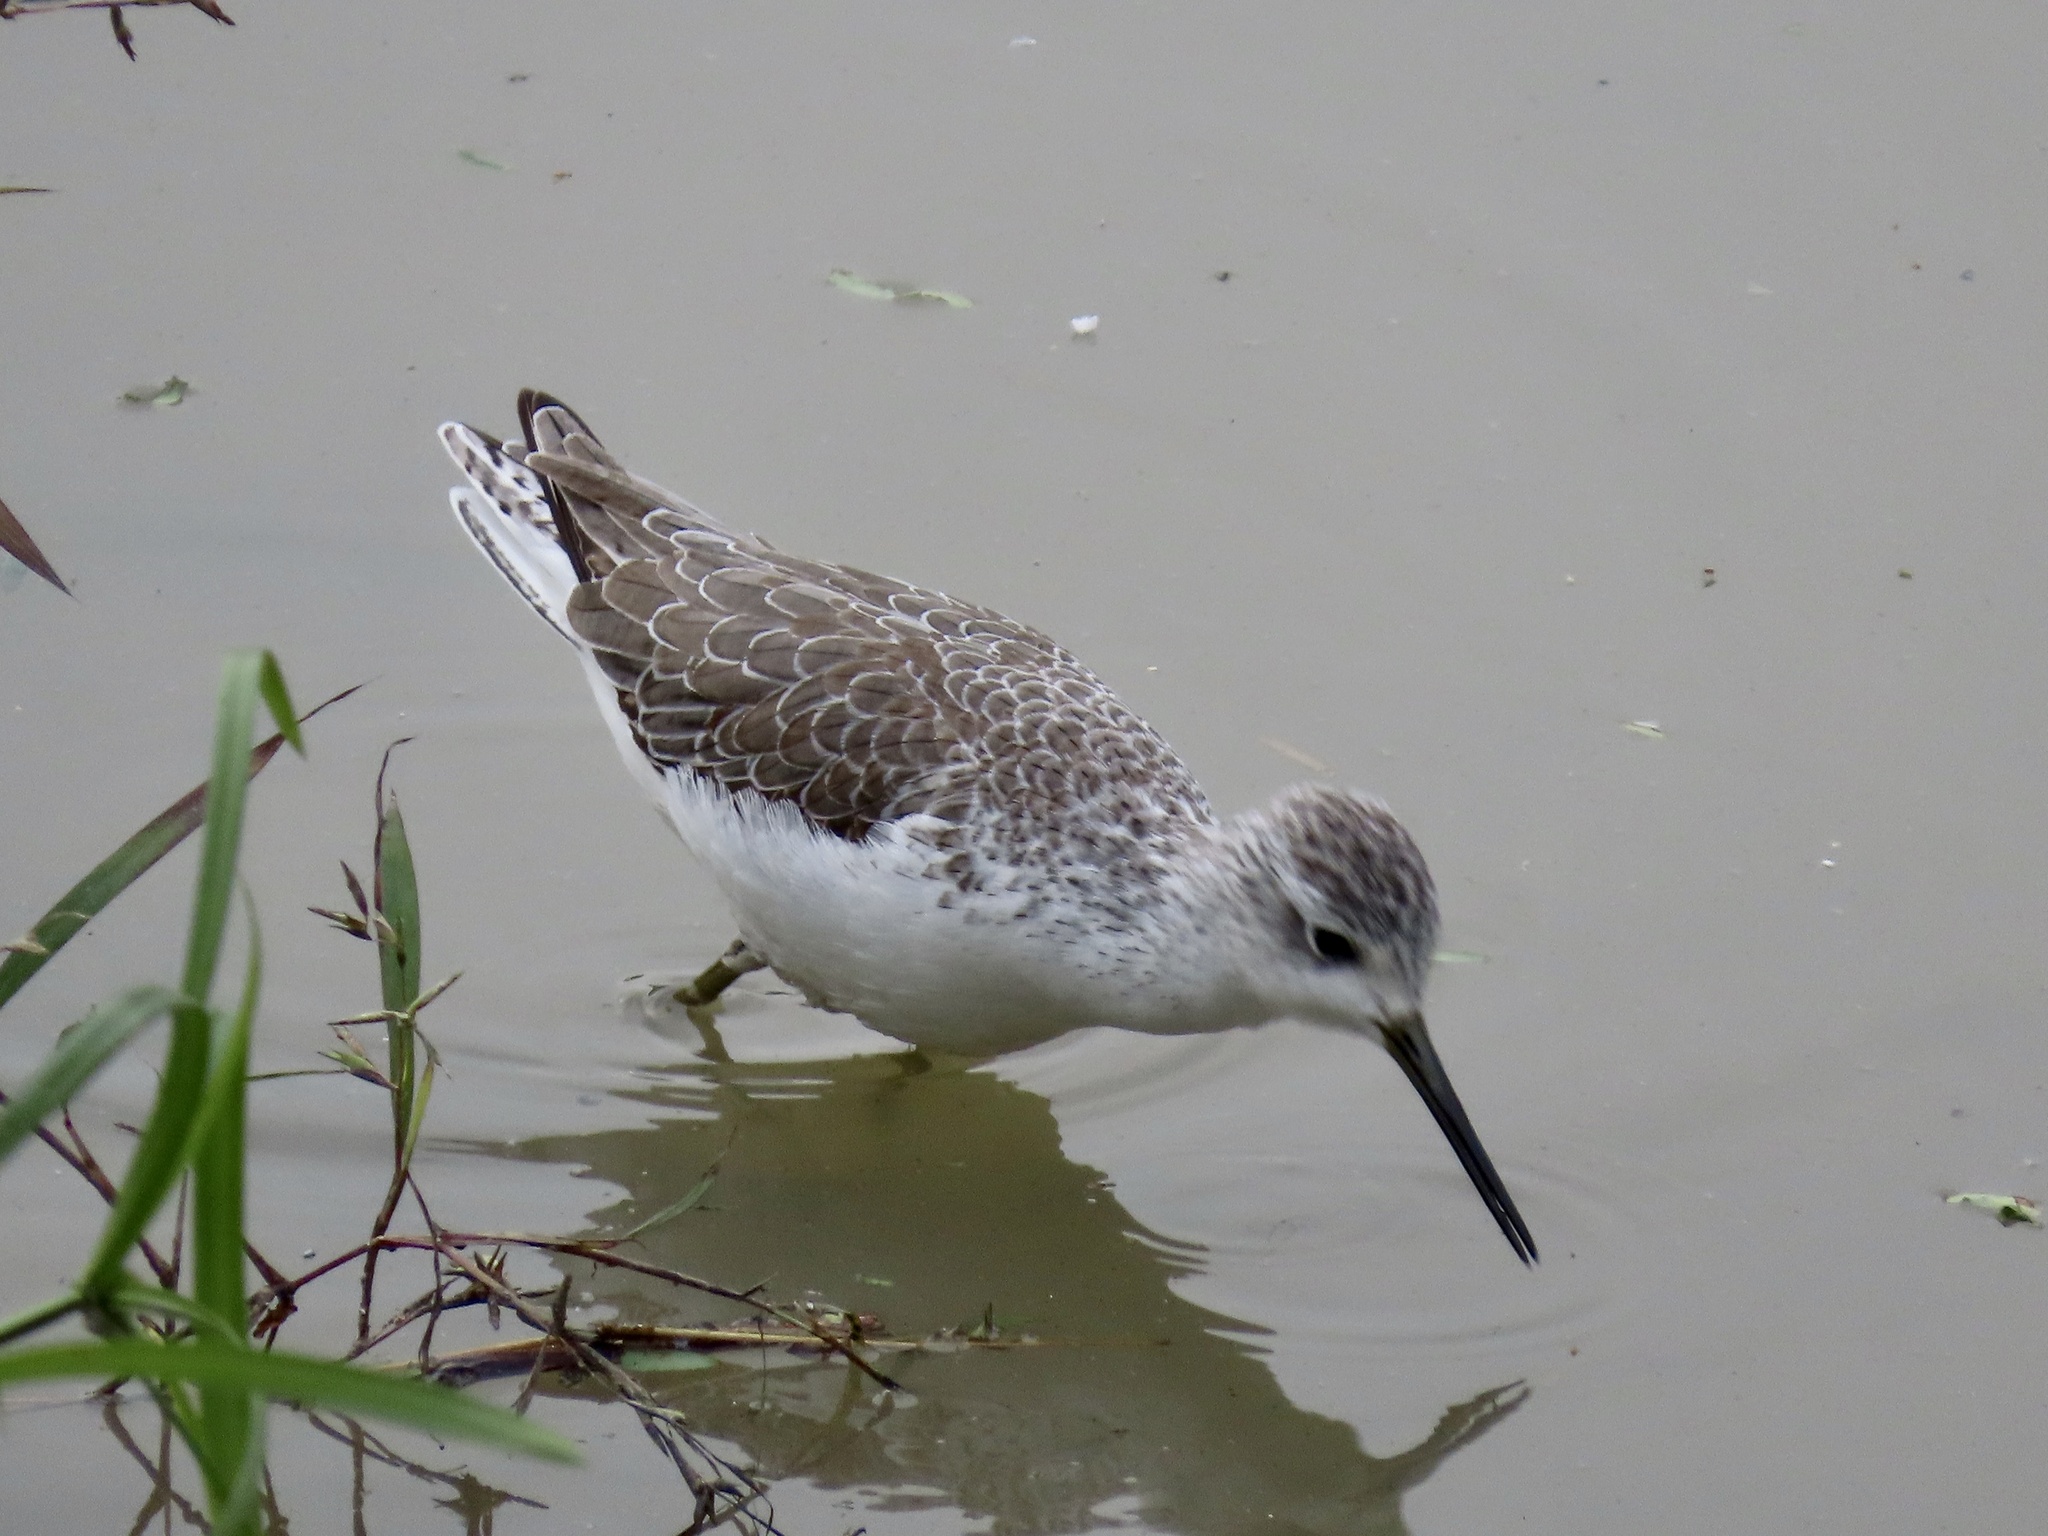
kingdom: Animalia
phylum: Chordata
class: Aves
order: Charadriiformes
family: Scolopacidae
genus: Tringa
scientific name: Tringa stagnatilis
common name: Marsh sandpiper
